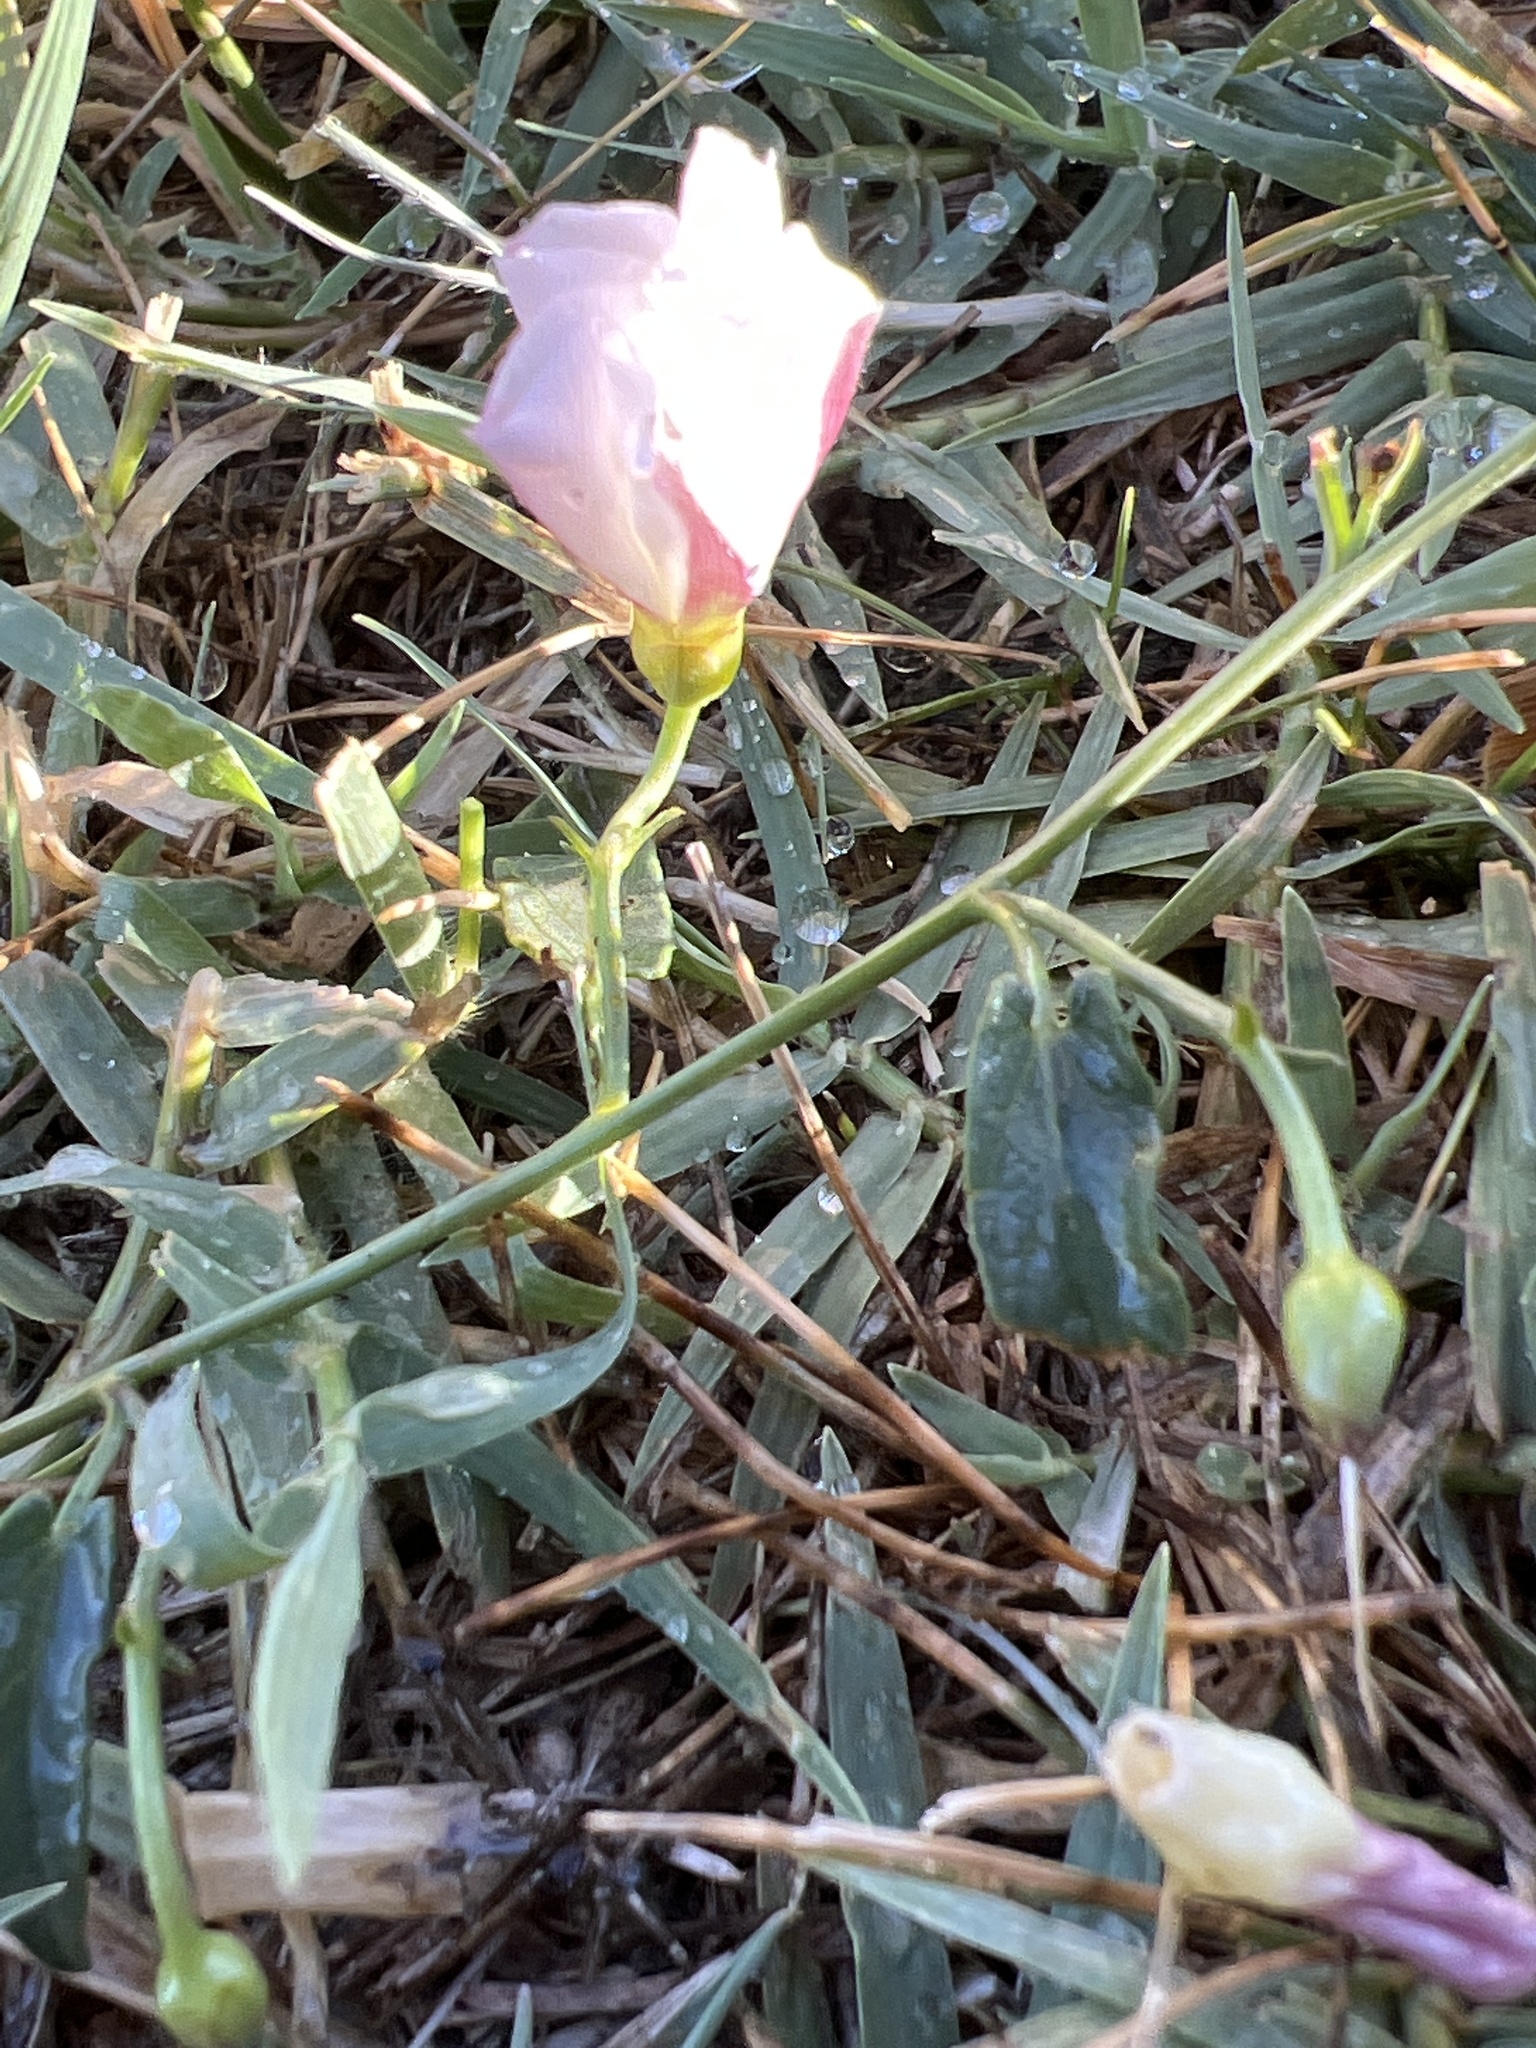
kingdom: Plantae
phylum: Tracheophyta
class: Magnoliopsida
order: Solanales
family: Convolvulaceae
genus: Convolvulus
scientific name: Convolvulus arvensis
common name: Field bindweed
